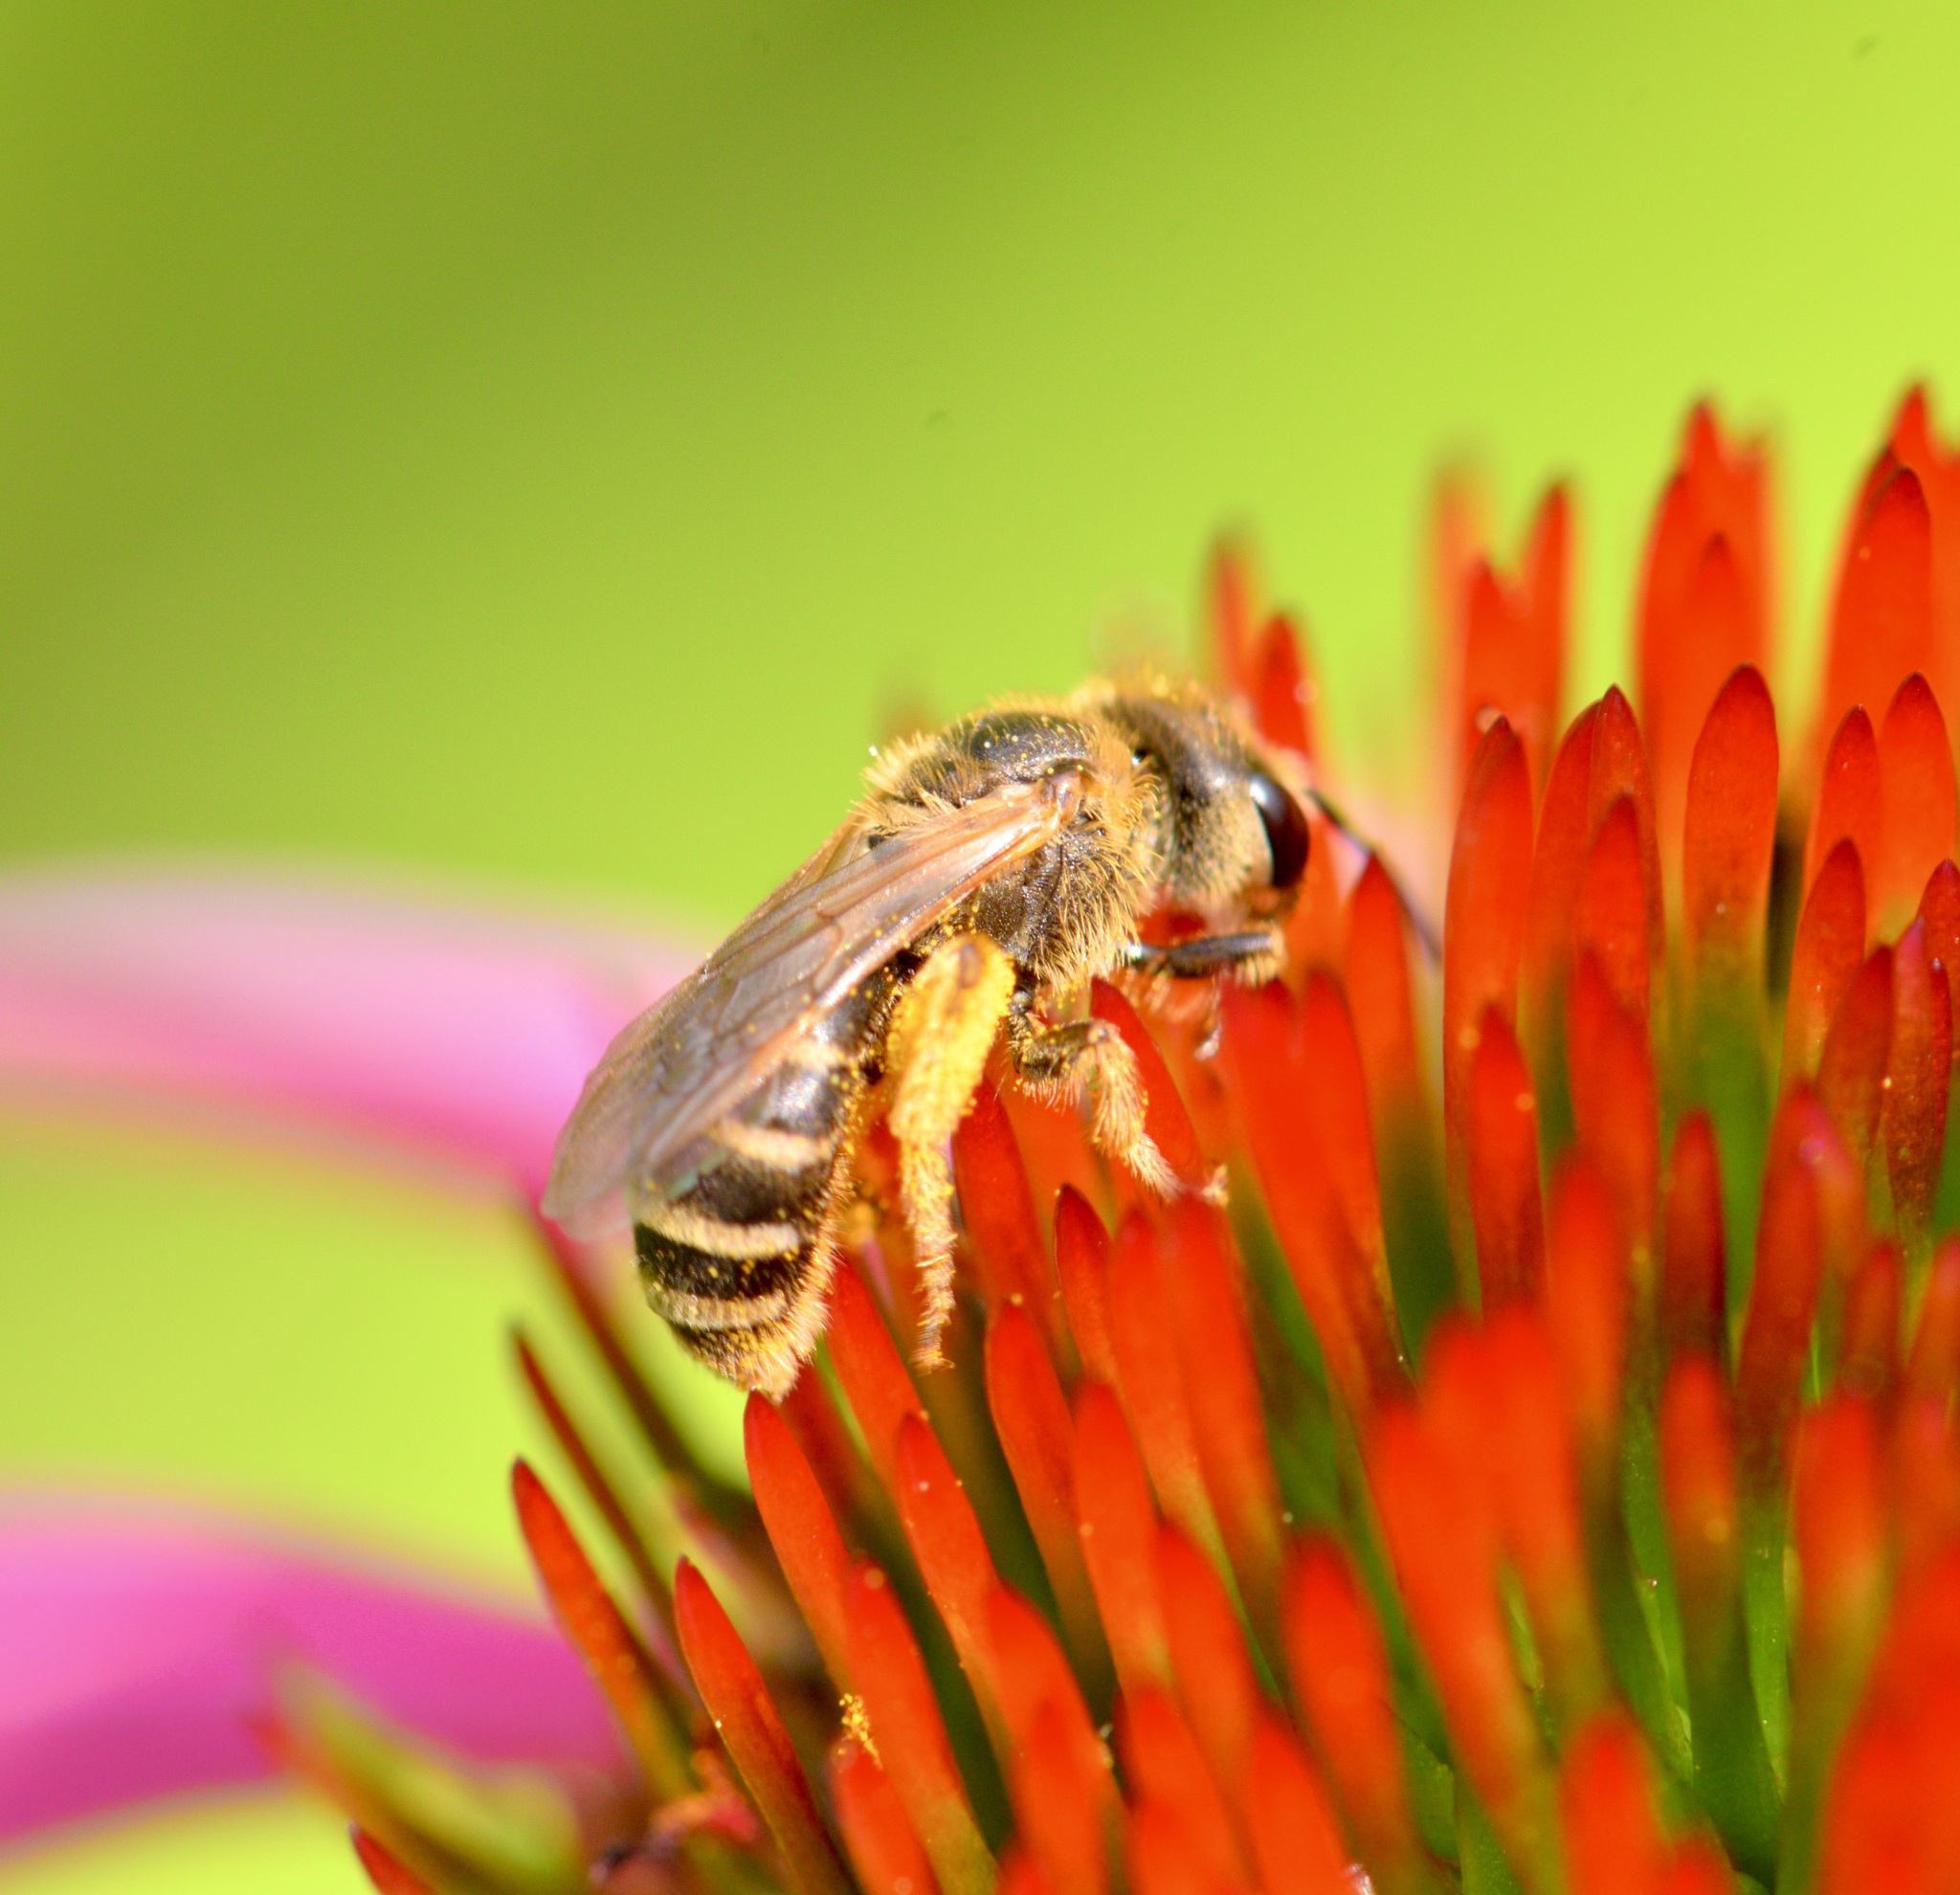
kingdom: Animalia
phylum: Arthropoda
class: Insecta
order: Hymenoptera
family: Halictidae
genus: Halictus
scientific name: Halictus ligatus
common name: Ligated furrow bee
